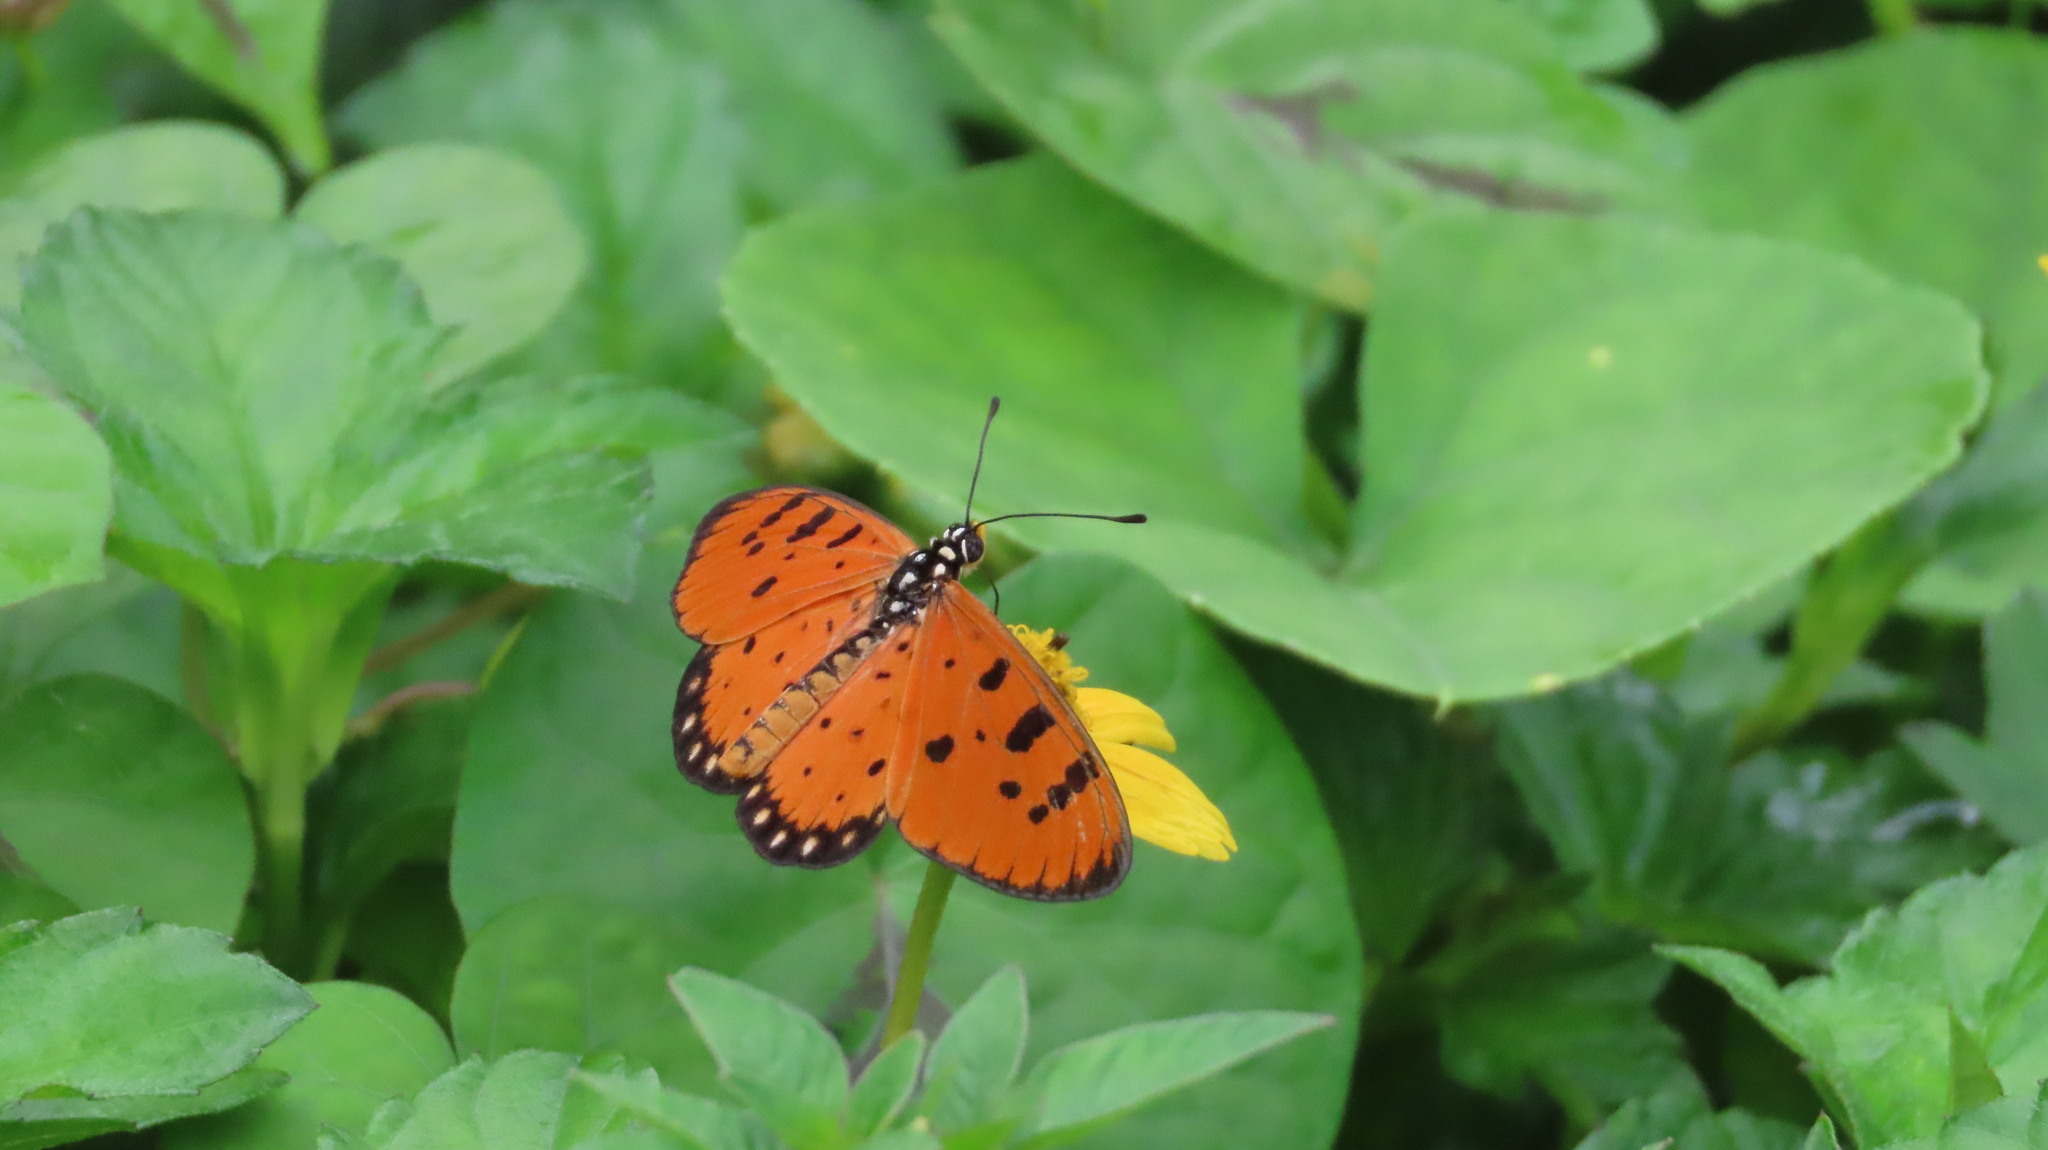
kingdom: Animalia
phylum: Arthropoda
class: Insecta
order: Lepidoptera
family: Nymphalidae
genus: Acraea
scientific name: Acraea terpsicore
